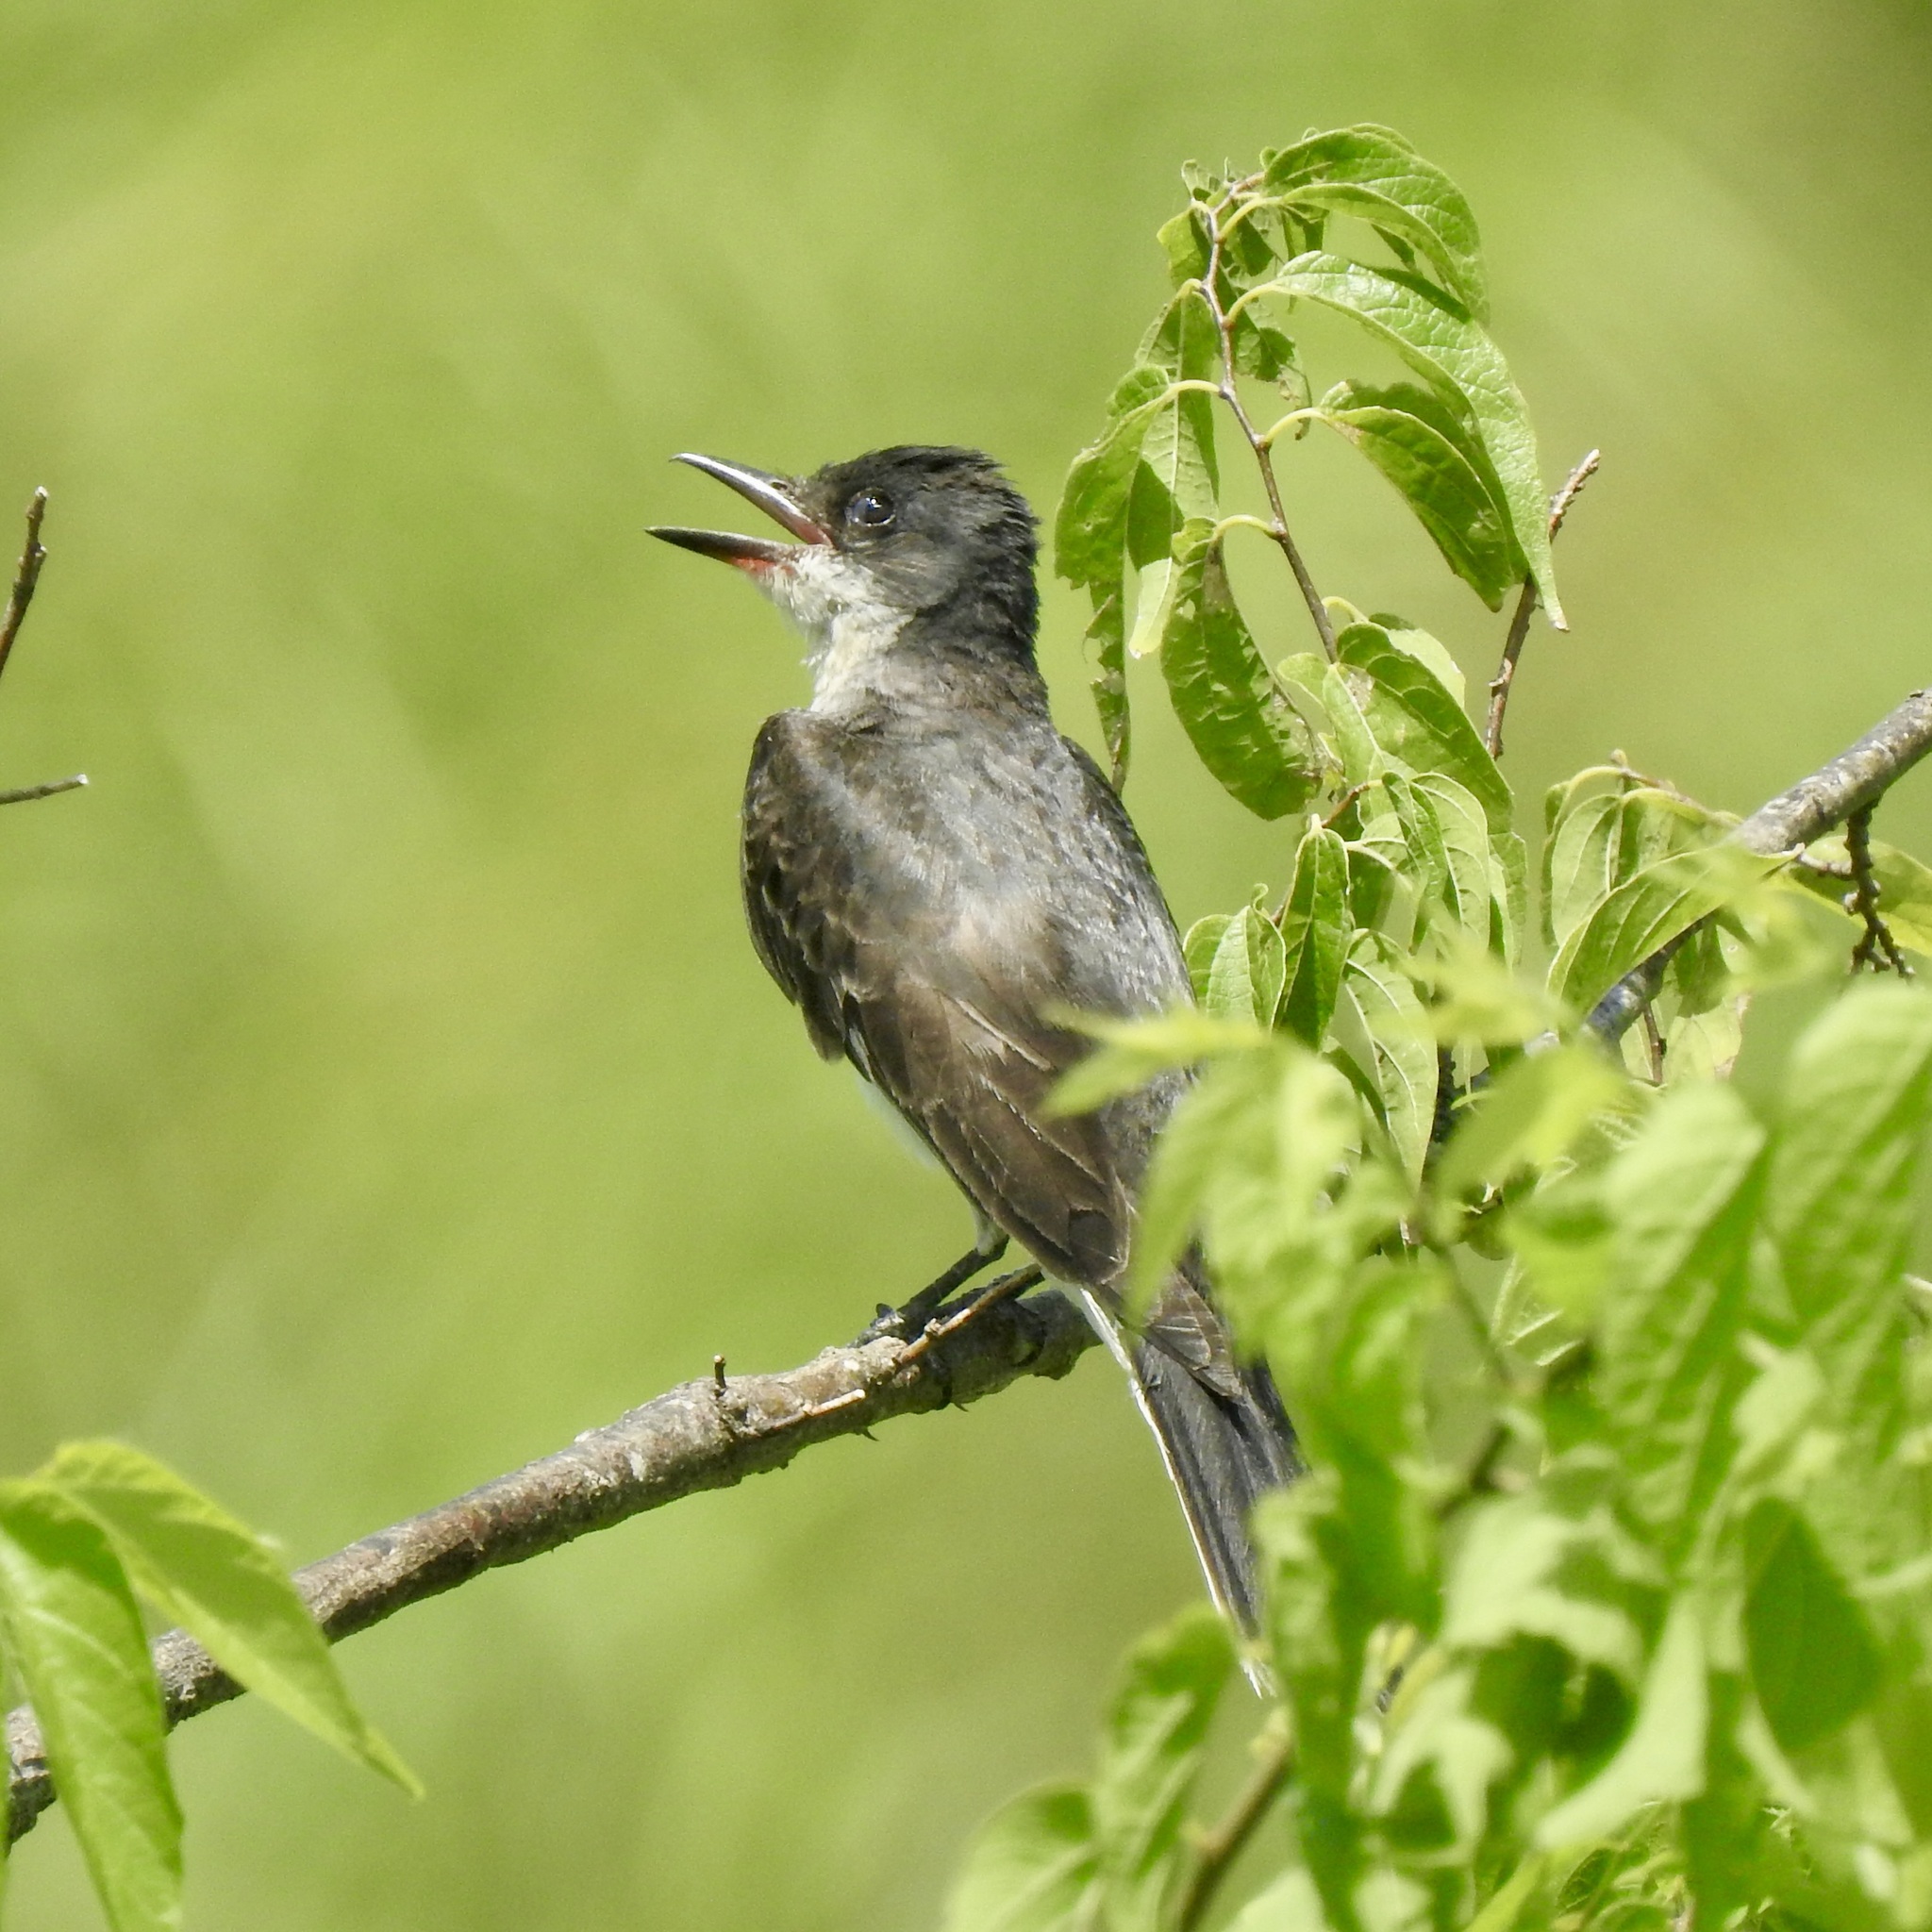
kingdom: Animalia
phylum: Chordata
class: Aves
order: Passeriformes
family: Tyrannidae
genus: Tyrannus
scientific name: Tyrannus tyrannus
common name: Eastern kingbird
